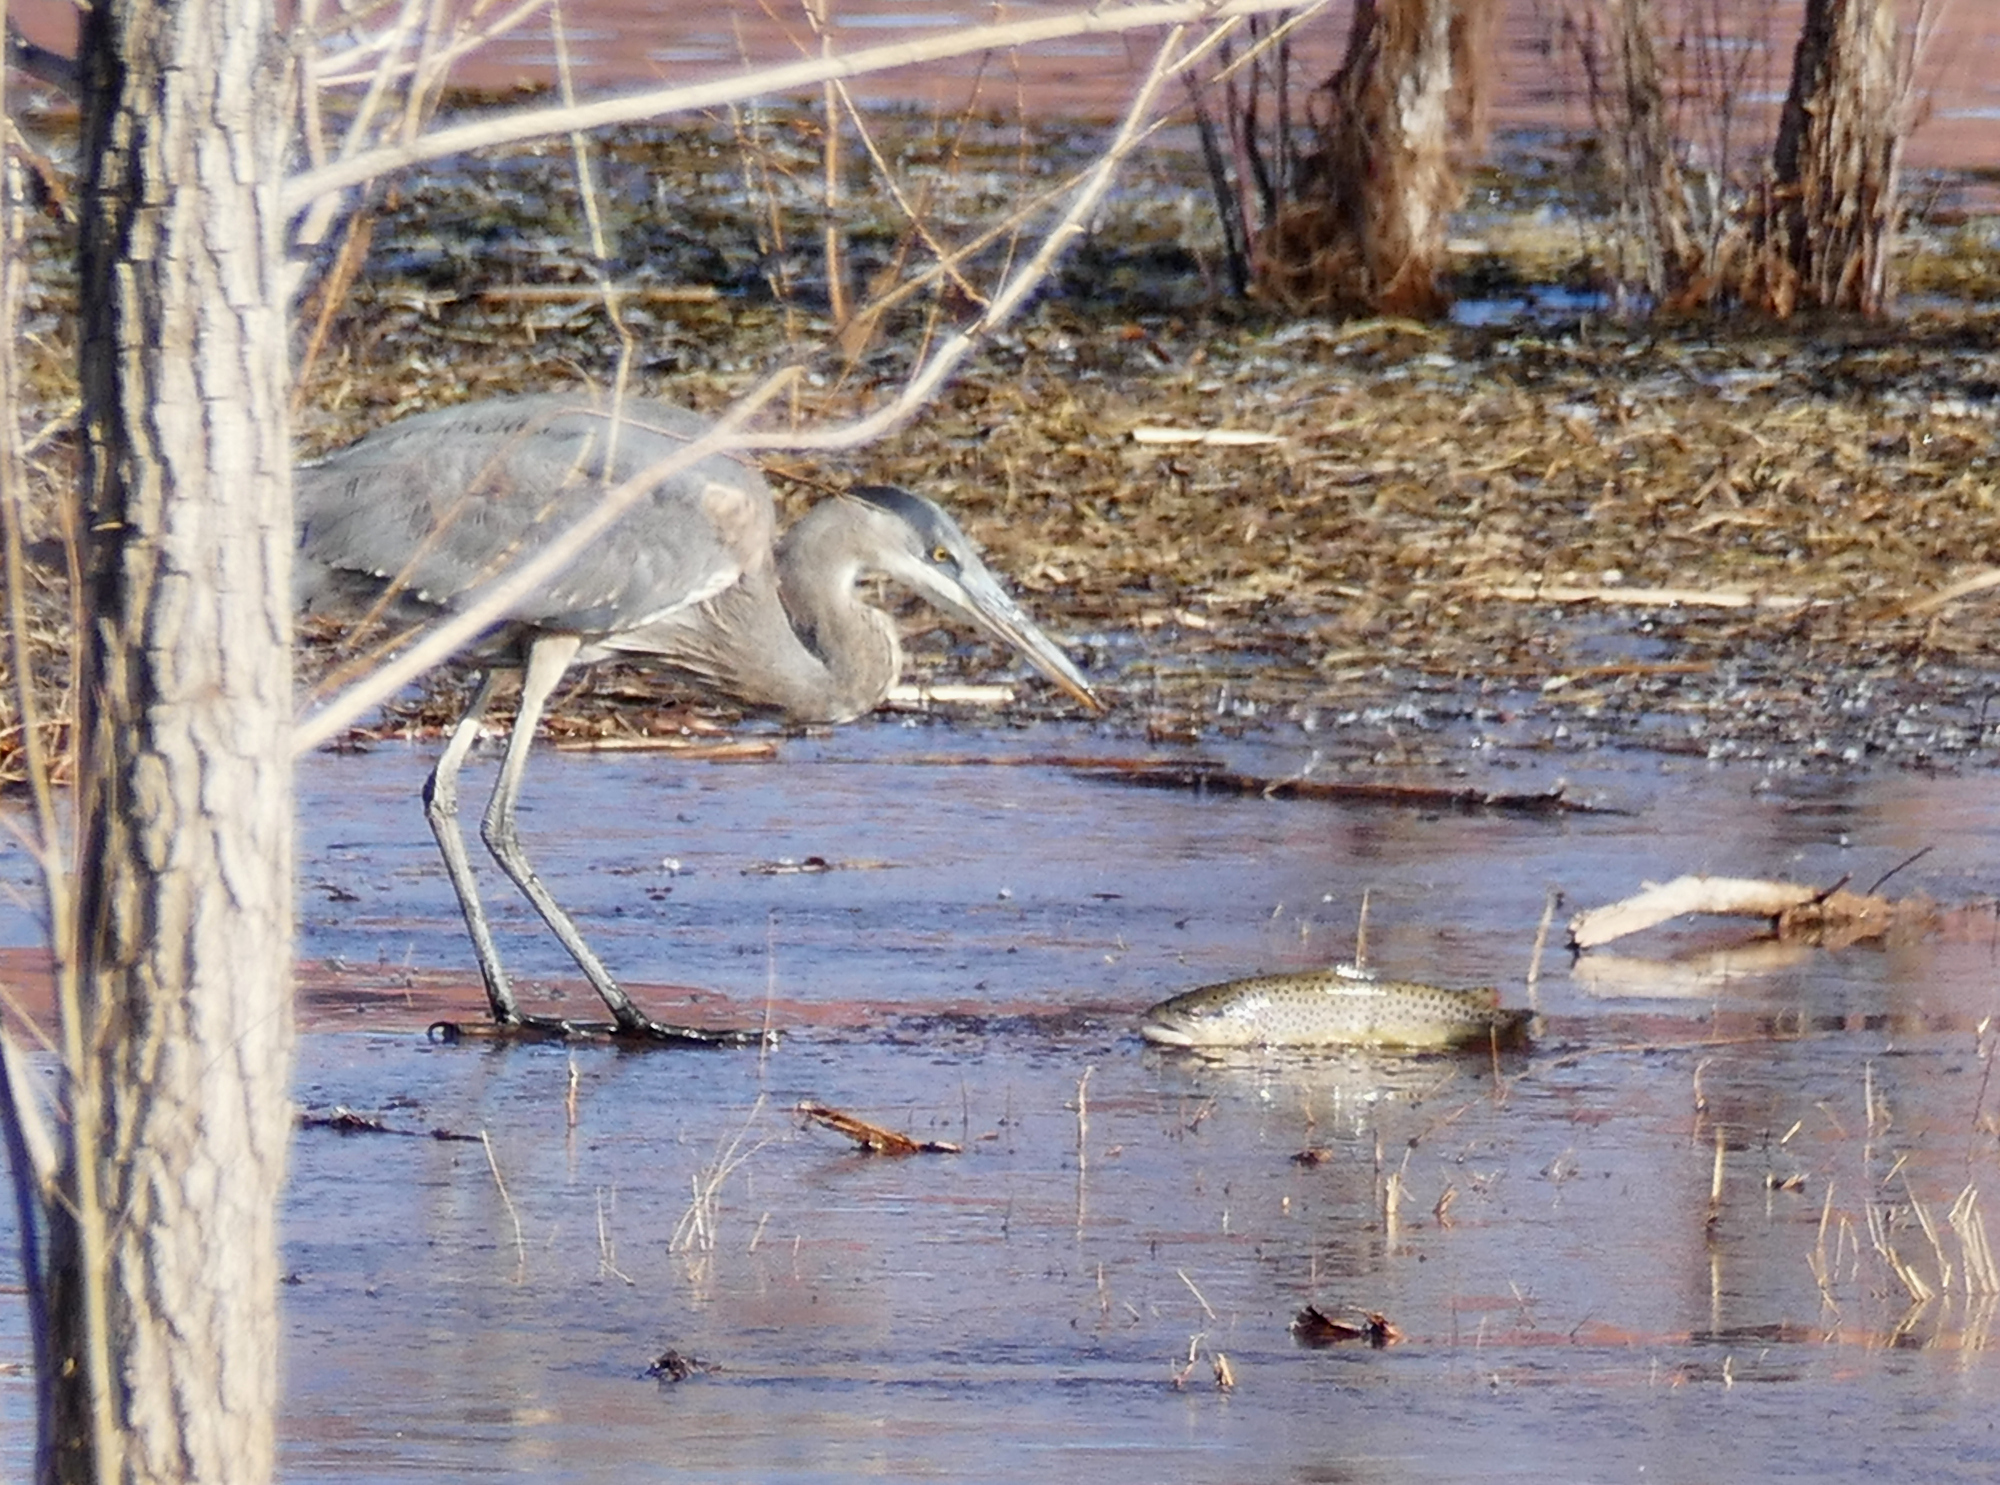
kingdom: Animalia
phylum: Chordata
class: Aves
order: Pelecaniformes
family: Ardeidae
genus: Ardea
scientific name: Ardea herodias
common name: Great blue heron
